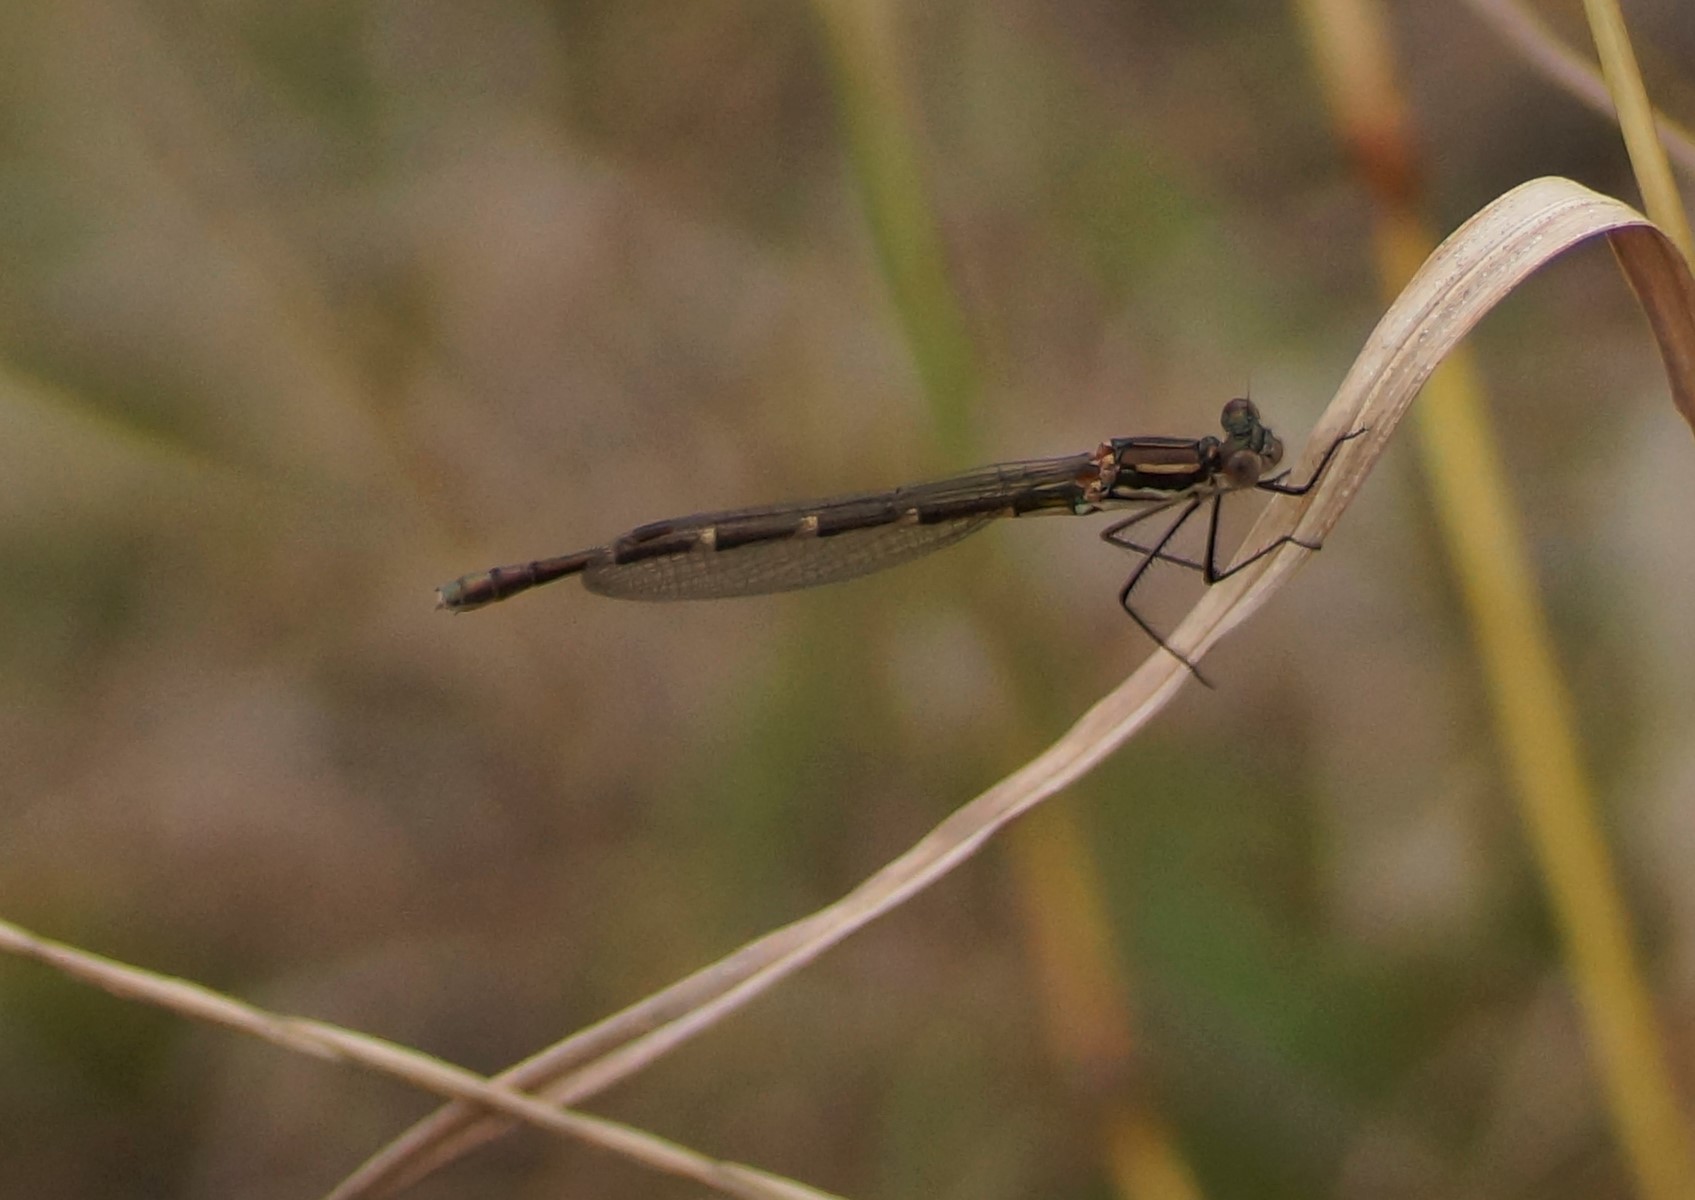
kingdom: Animalia
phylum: Arthropoda
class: Insecta
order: Odonata
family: Lestidae
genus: Austrolestes
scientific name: Austrolestes annulosus
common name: Blue ringtail
